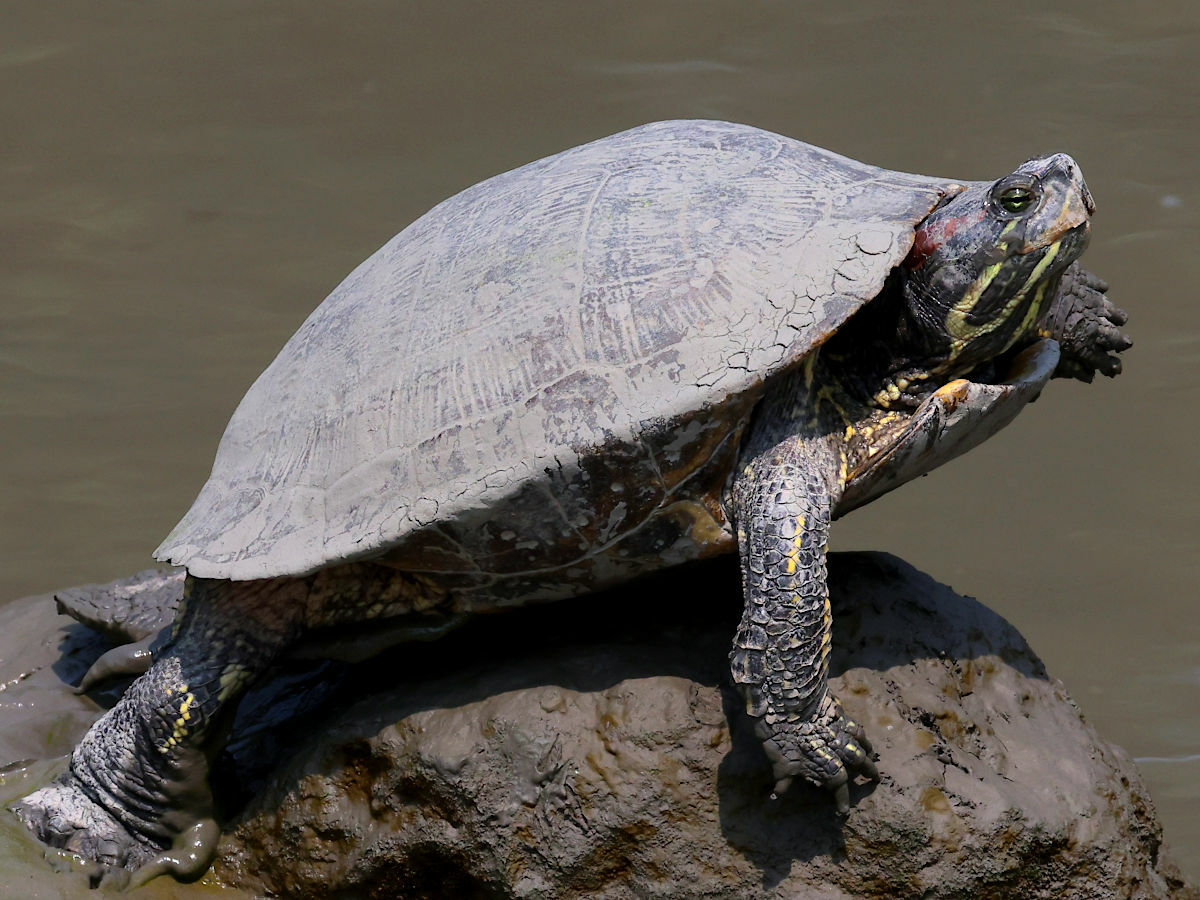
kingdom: Animalia
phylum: Chordata
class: Testudines
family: Emydidae
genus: Trachemys
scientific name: Trachemys scripta
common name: Slider
